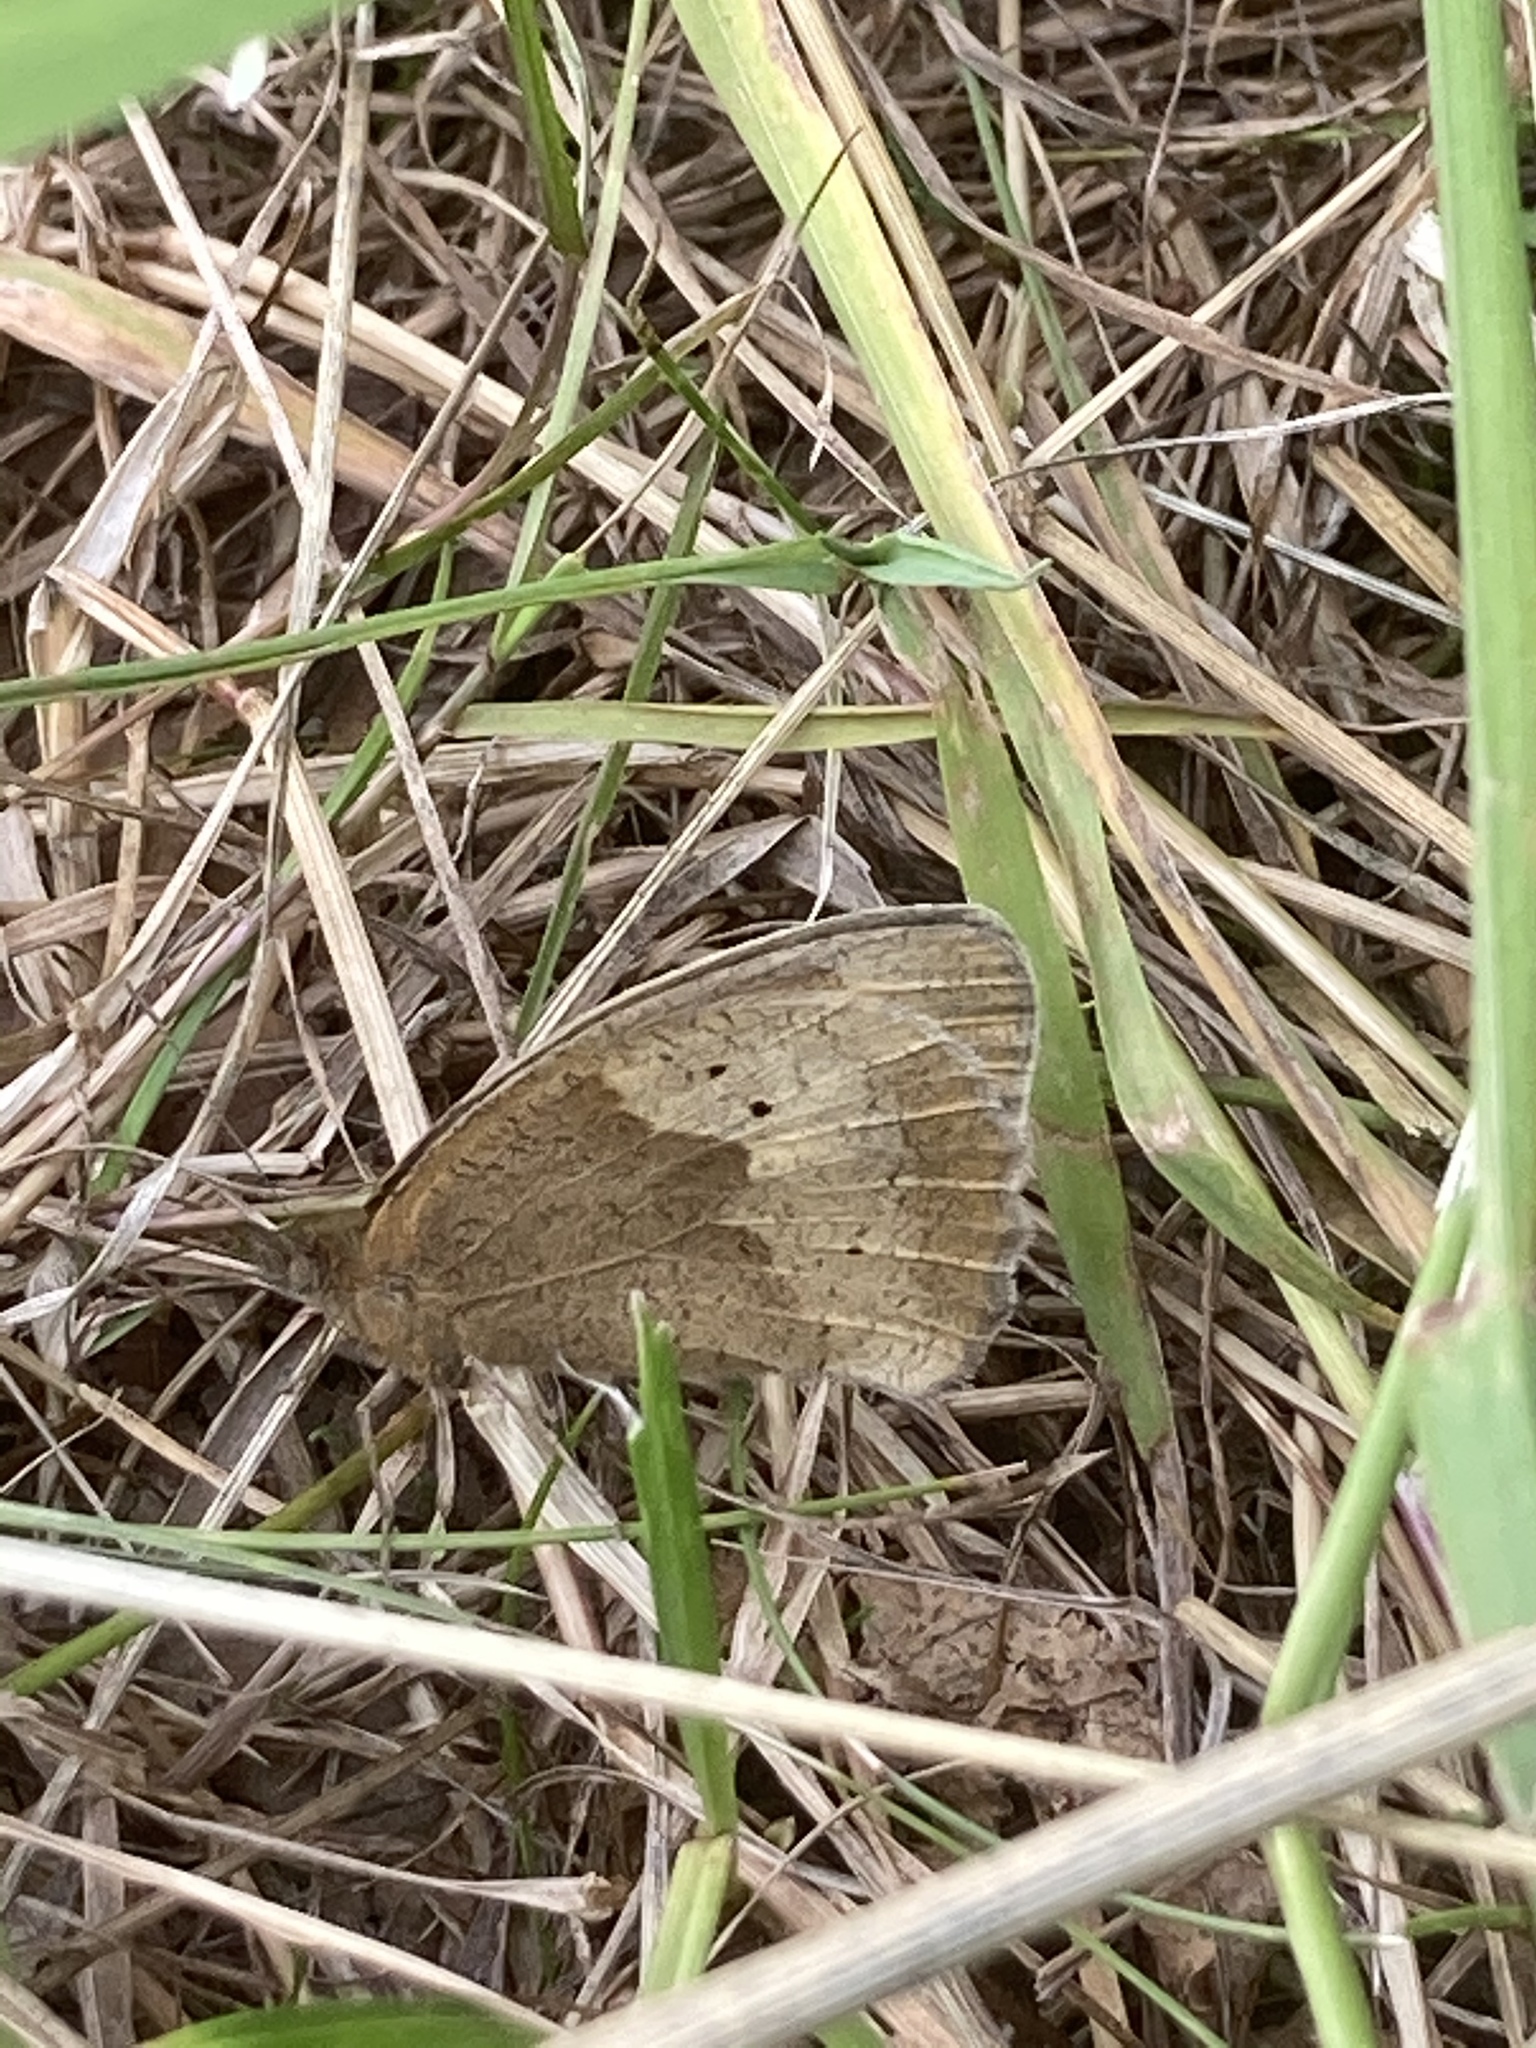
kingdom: Animalia
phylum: Arthropoda
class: Insecta
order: Lepidoptera
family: Nymphalidae
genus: Maniola
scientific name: Maniola jurtina
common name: Meadow brown
